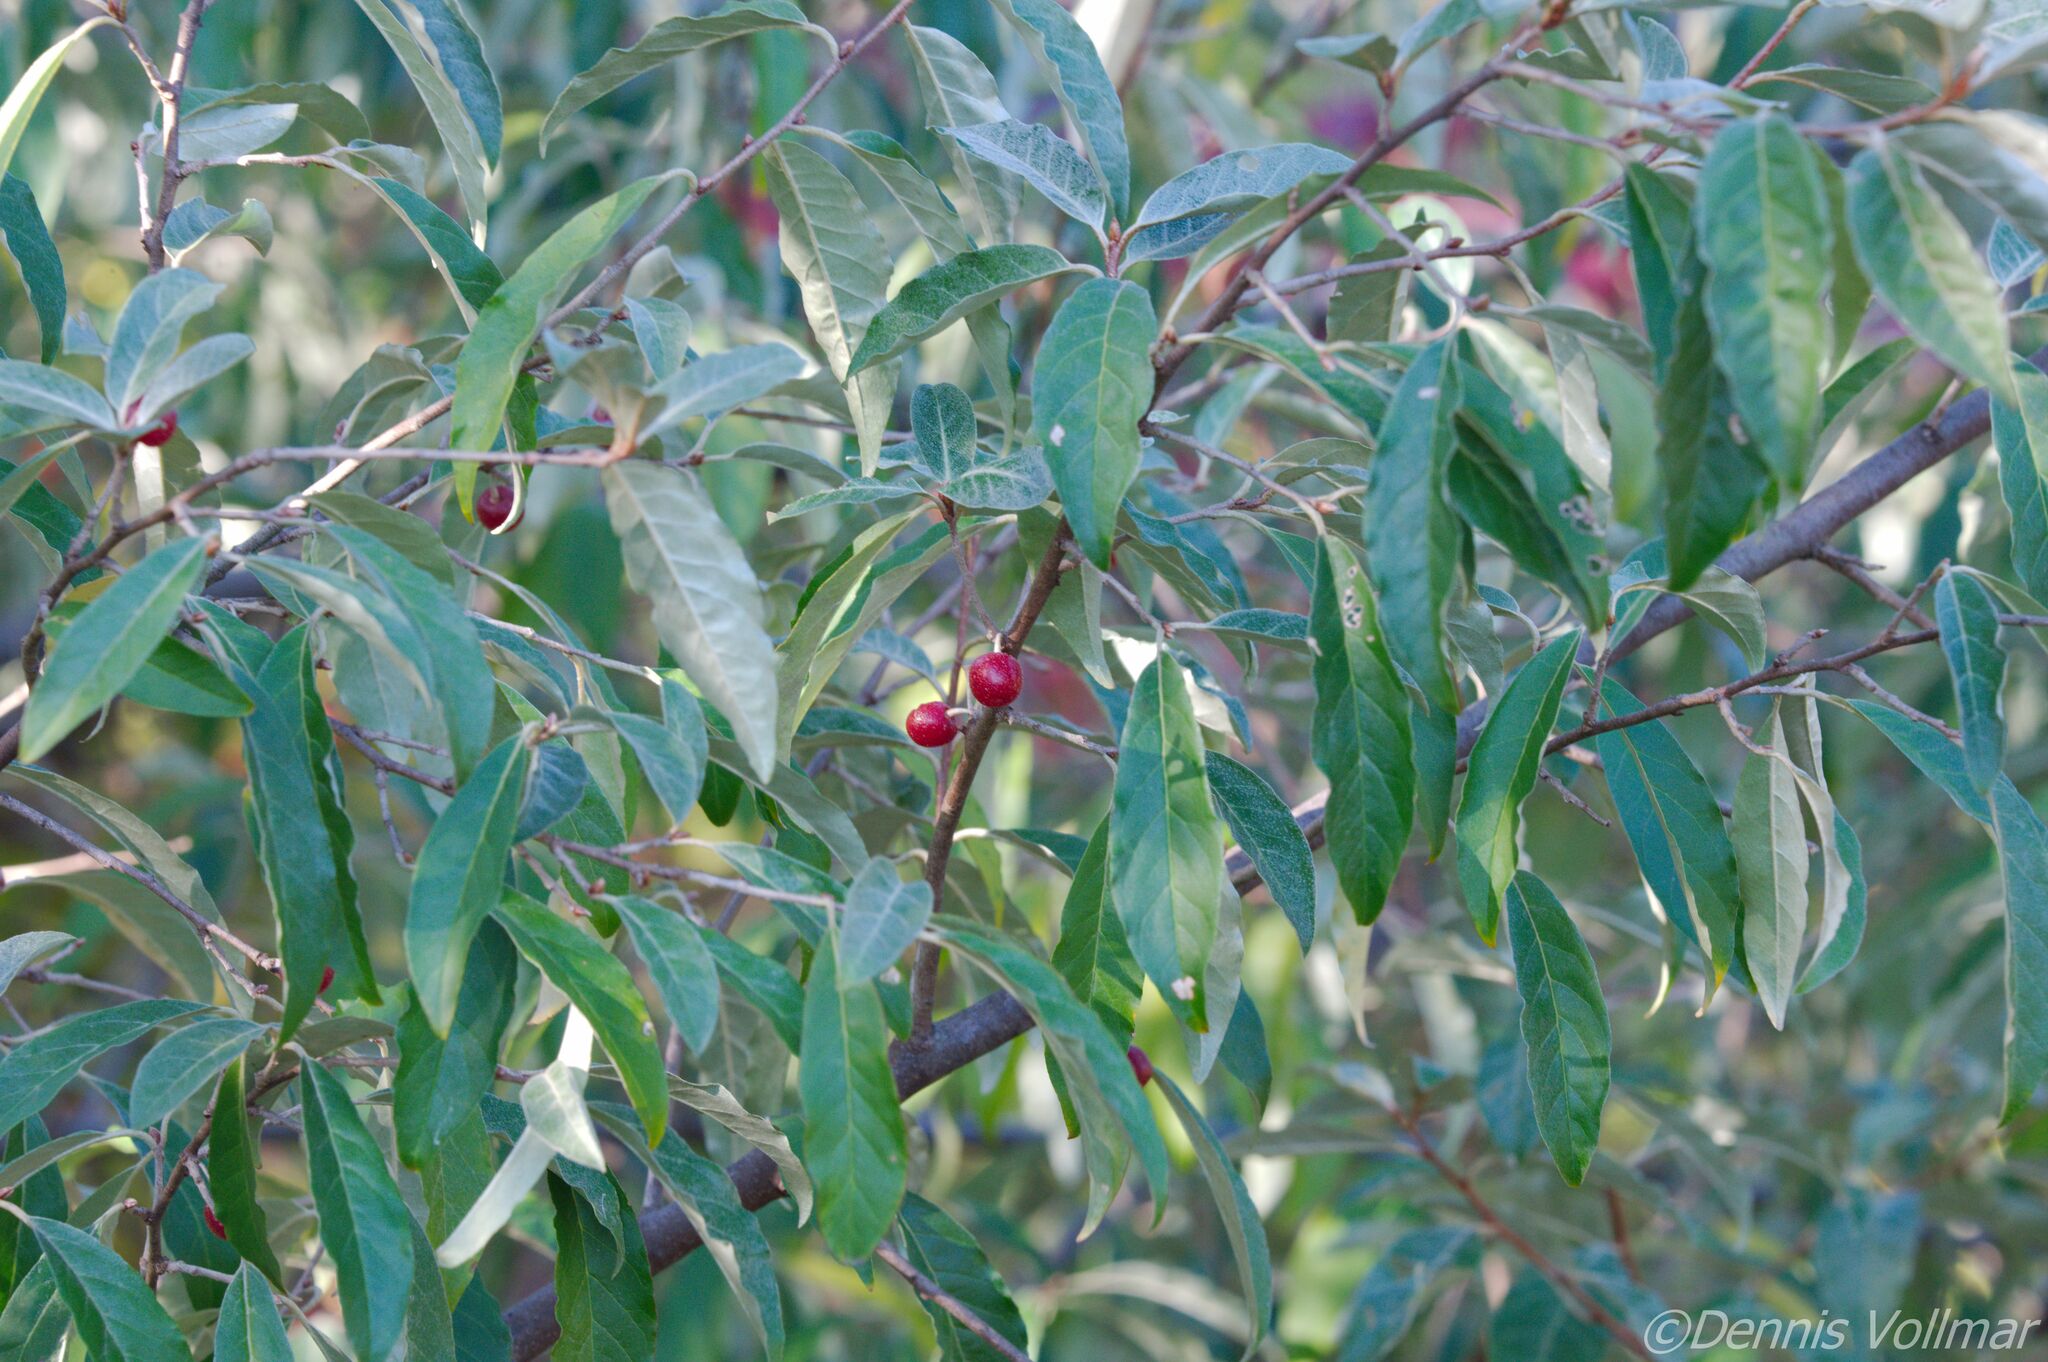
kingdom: Plantae
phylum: Tracheophyta
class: Magnoliopsida
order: Rosales
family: Elaeagnaceae
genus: Elaeagnus
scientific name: Elaeagnus umbellata
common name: Autumn olive
